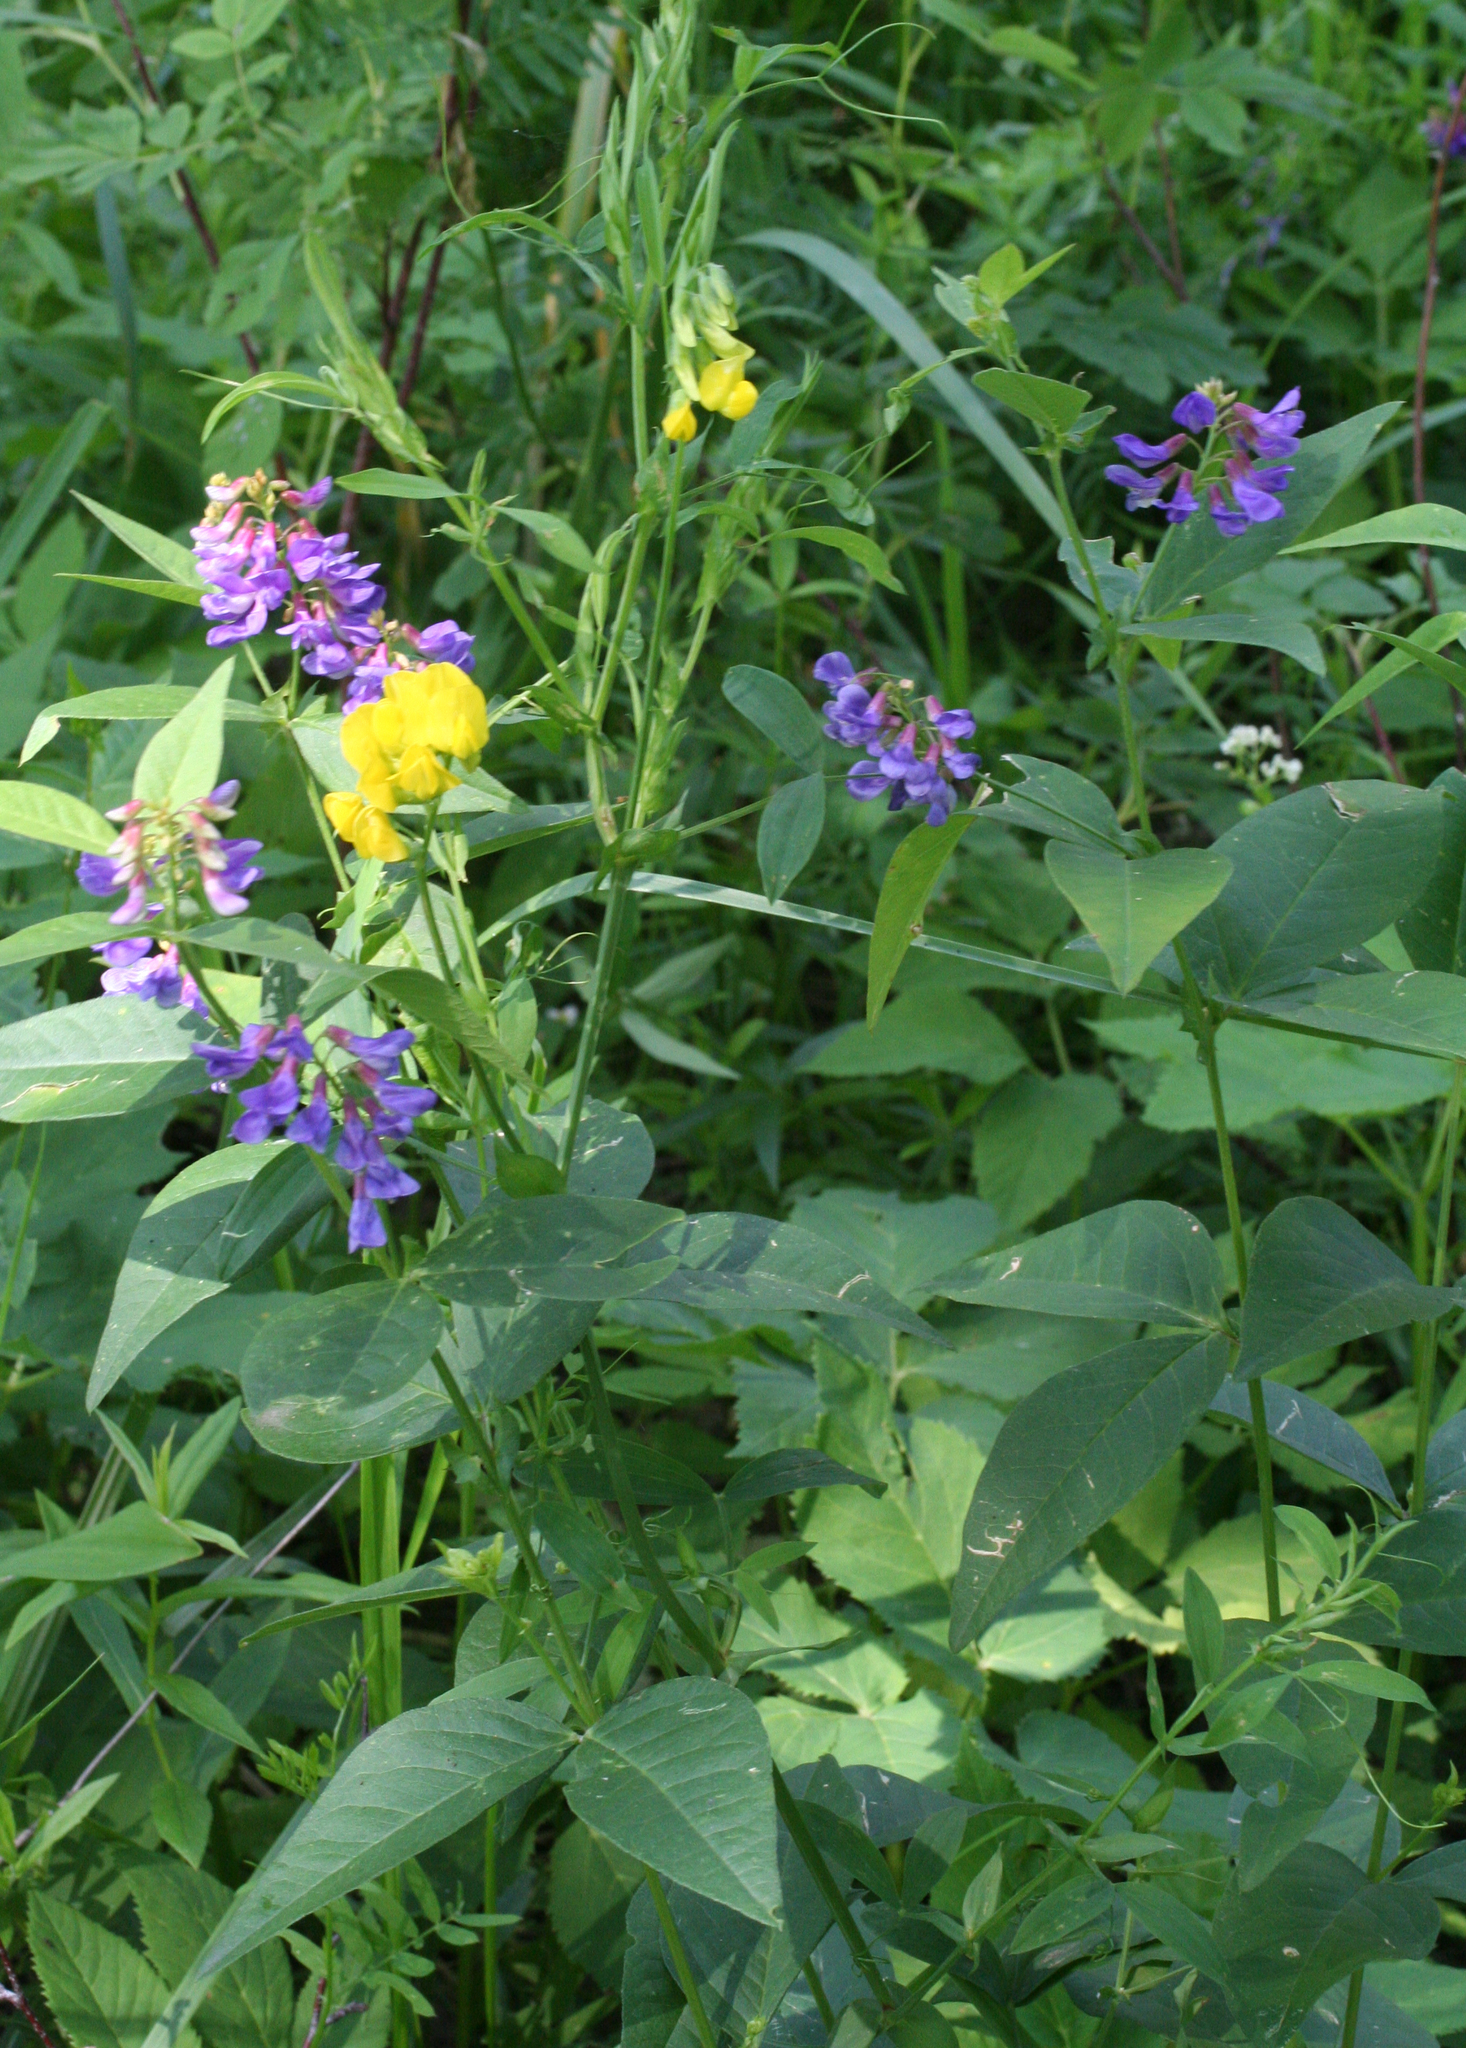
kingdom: Plantae
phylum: Tracheophyta
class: Magnoliopsida
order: Fabales
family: Fabaceae
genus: Vicia
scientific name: Vicia unijuga
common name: Two-leaf vetch
